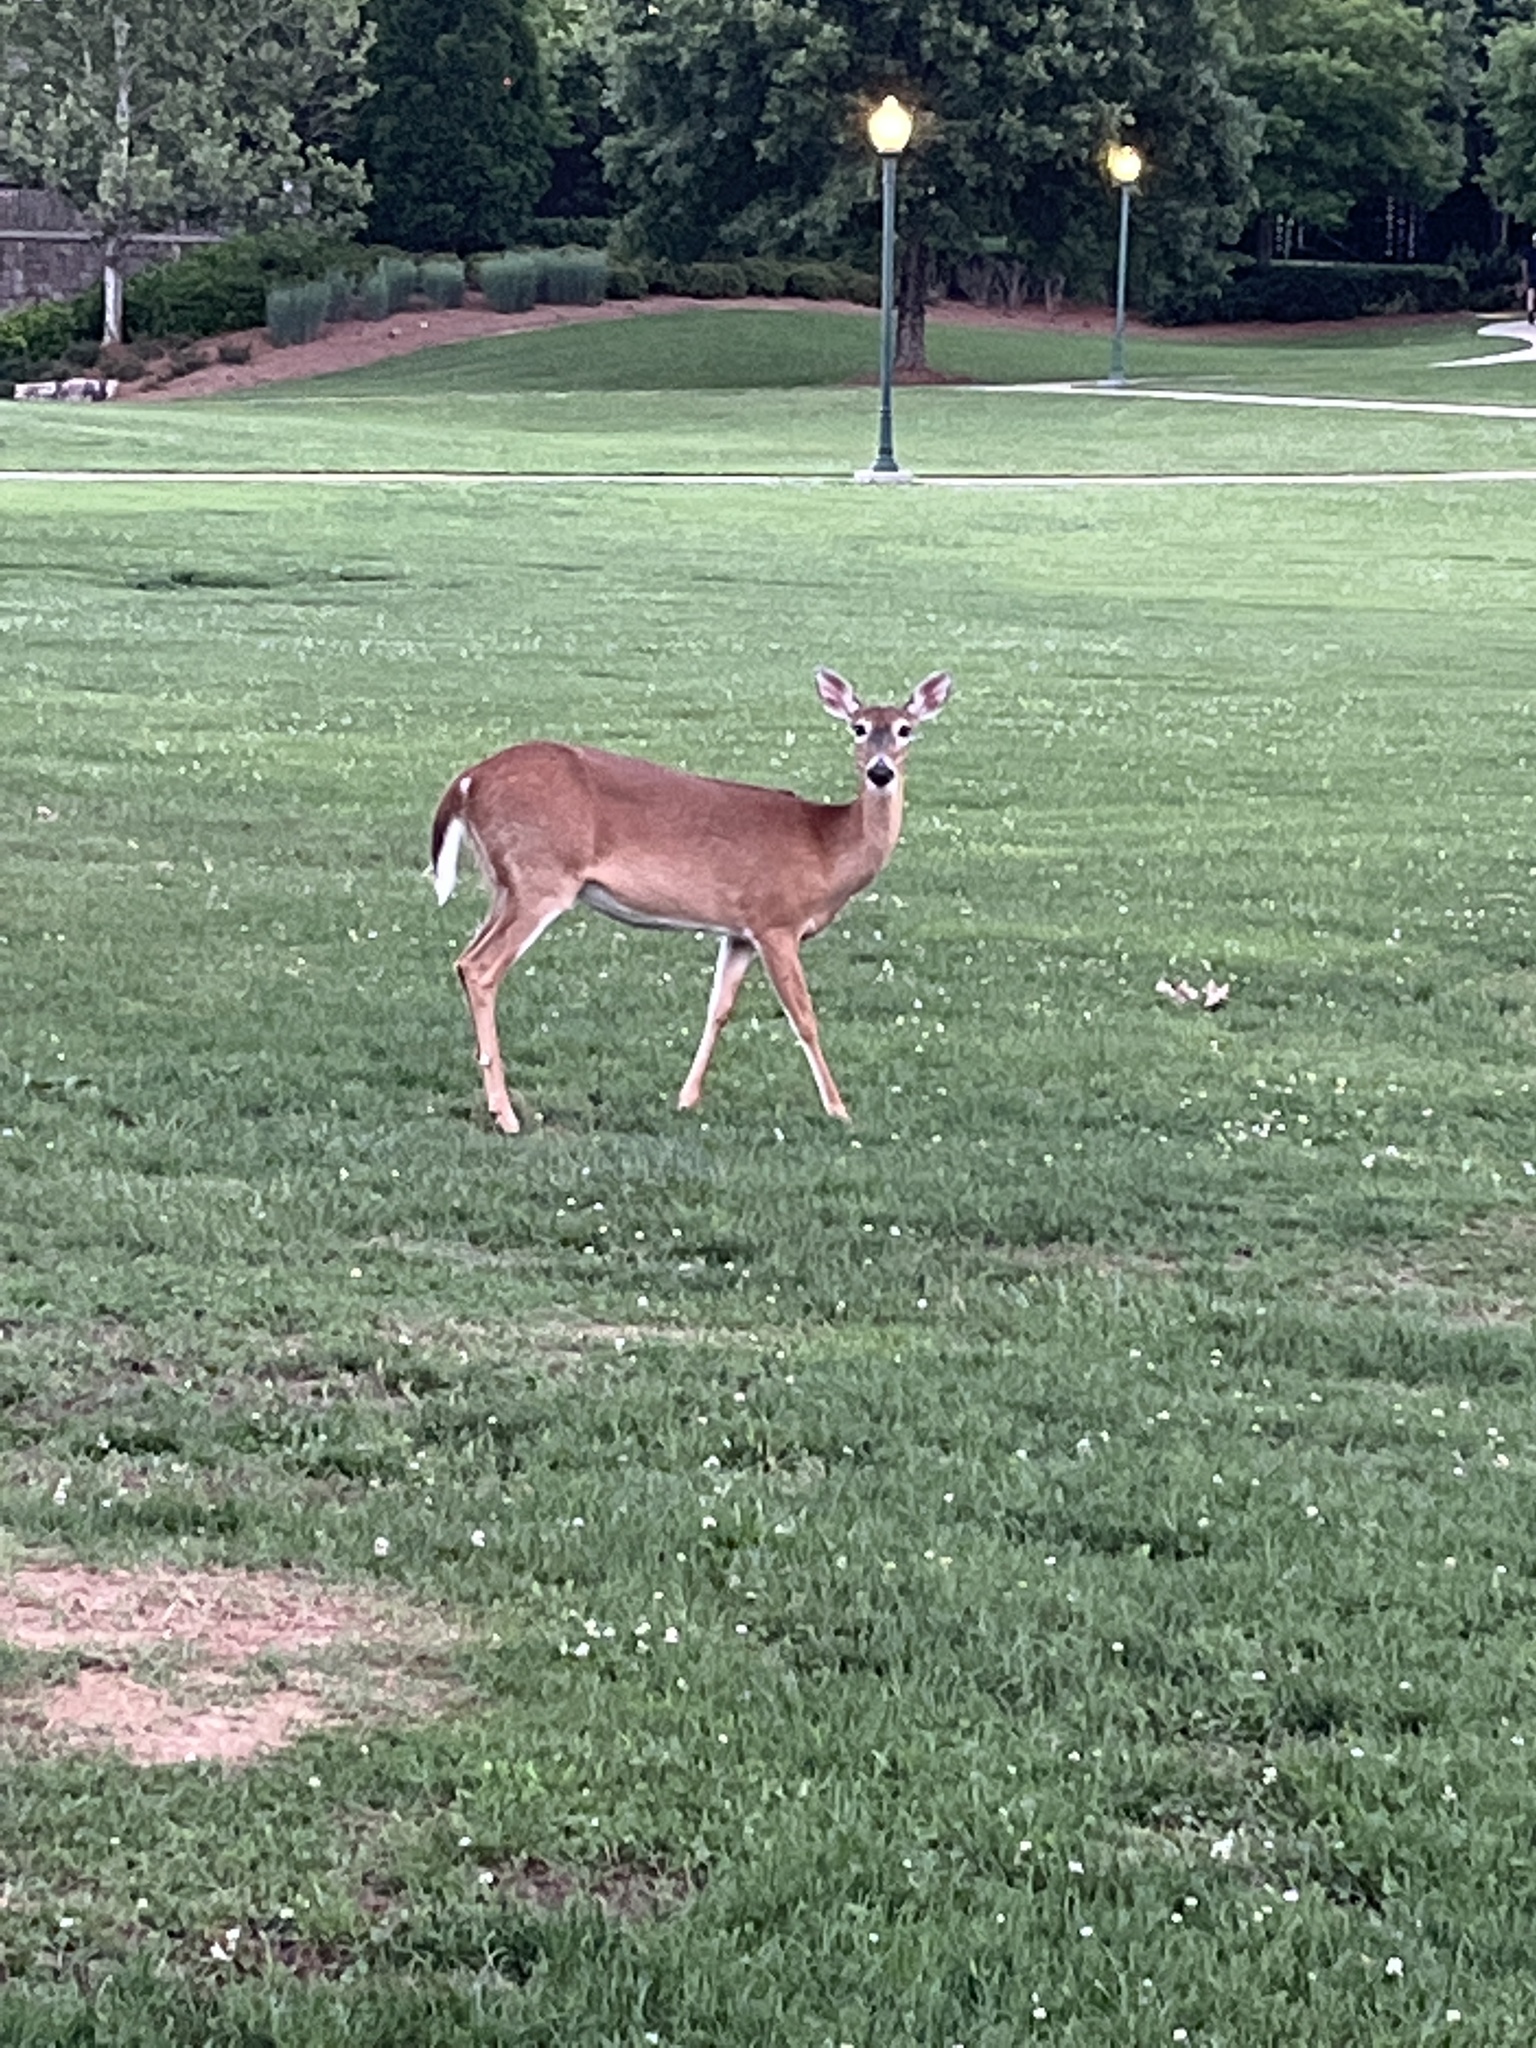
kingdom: Animalia
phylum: Chordata
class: Mammalia
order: Artiodactyla
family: Cervidae
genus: Odocoileus
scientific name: Odocoileus virginianus
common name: White-tailed deer
